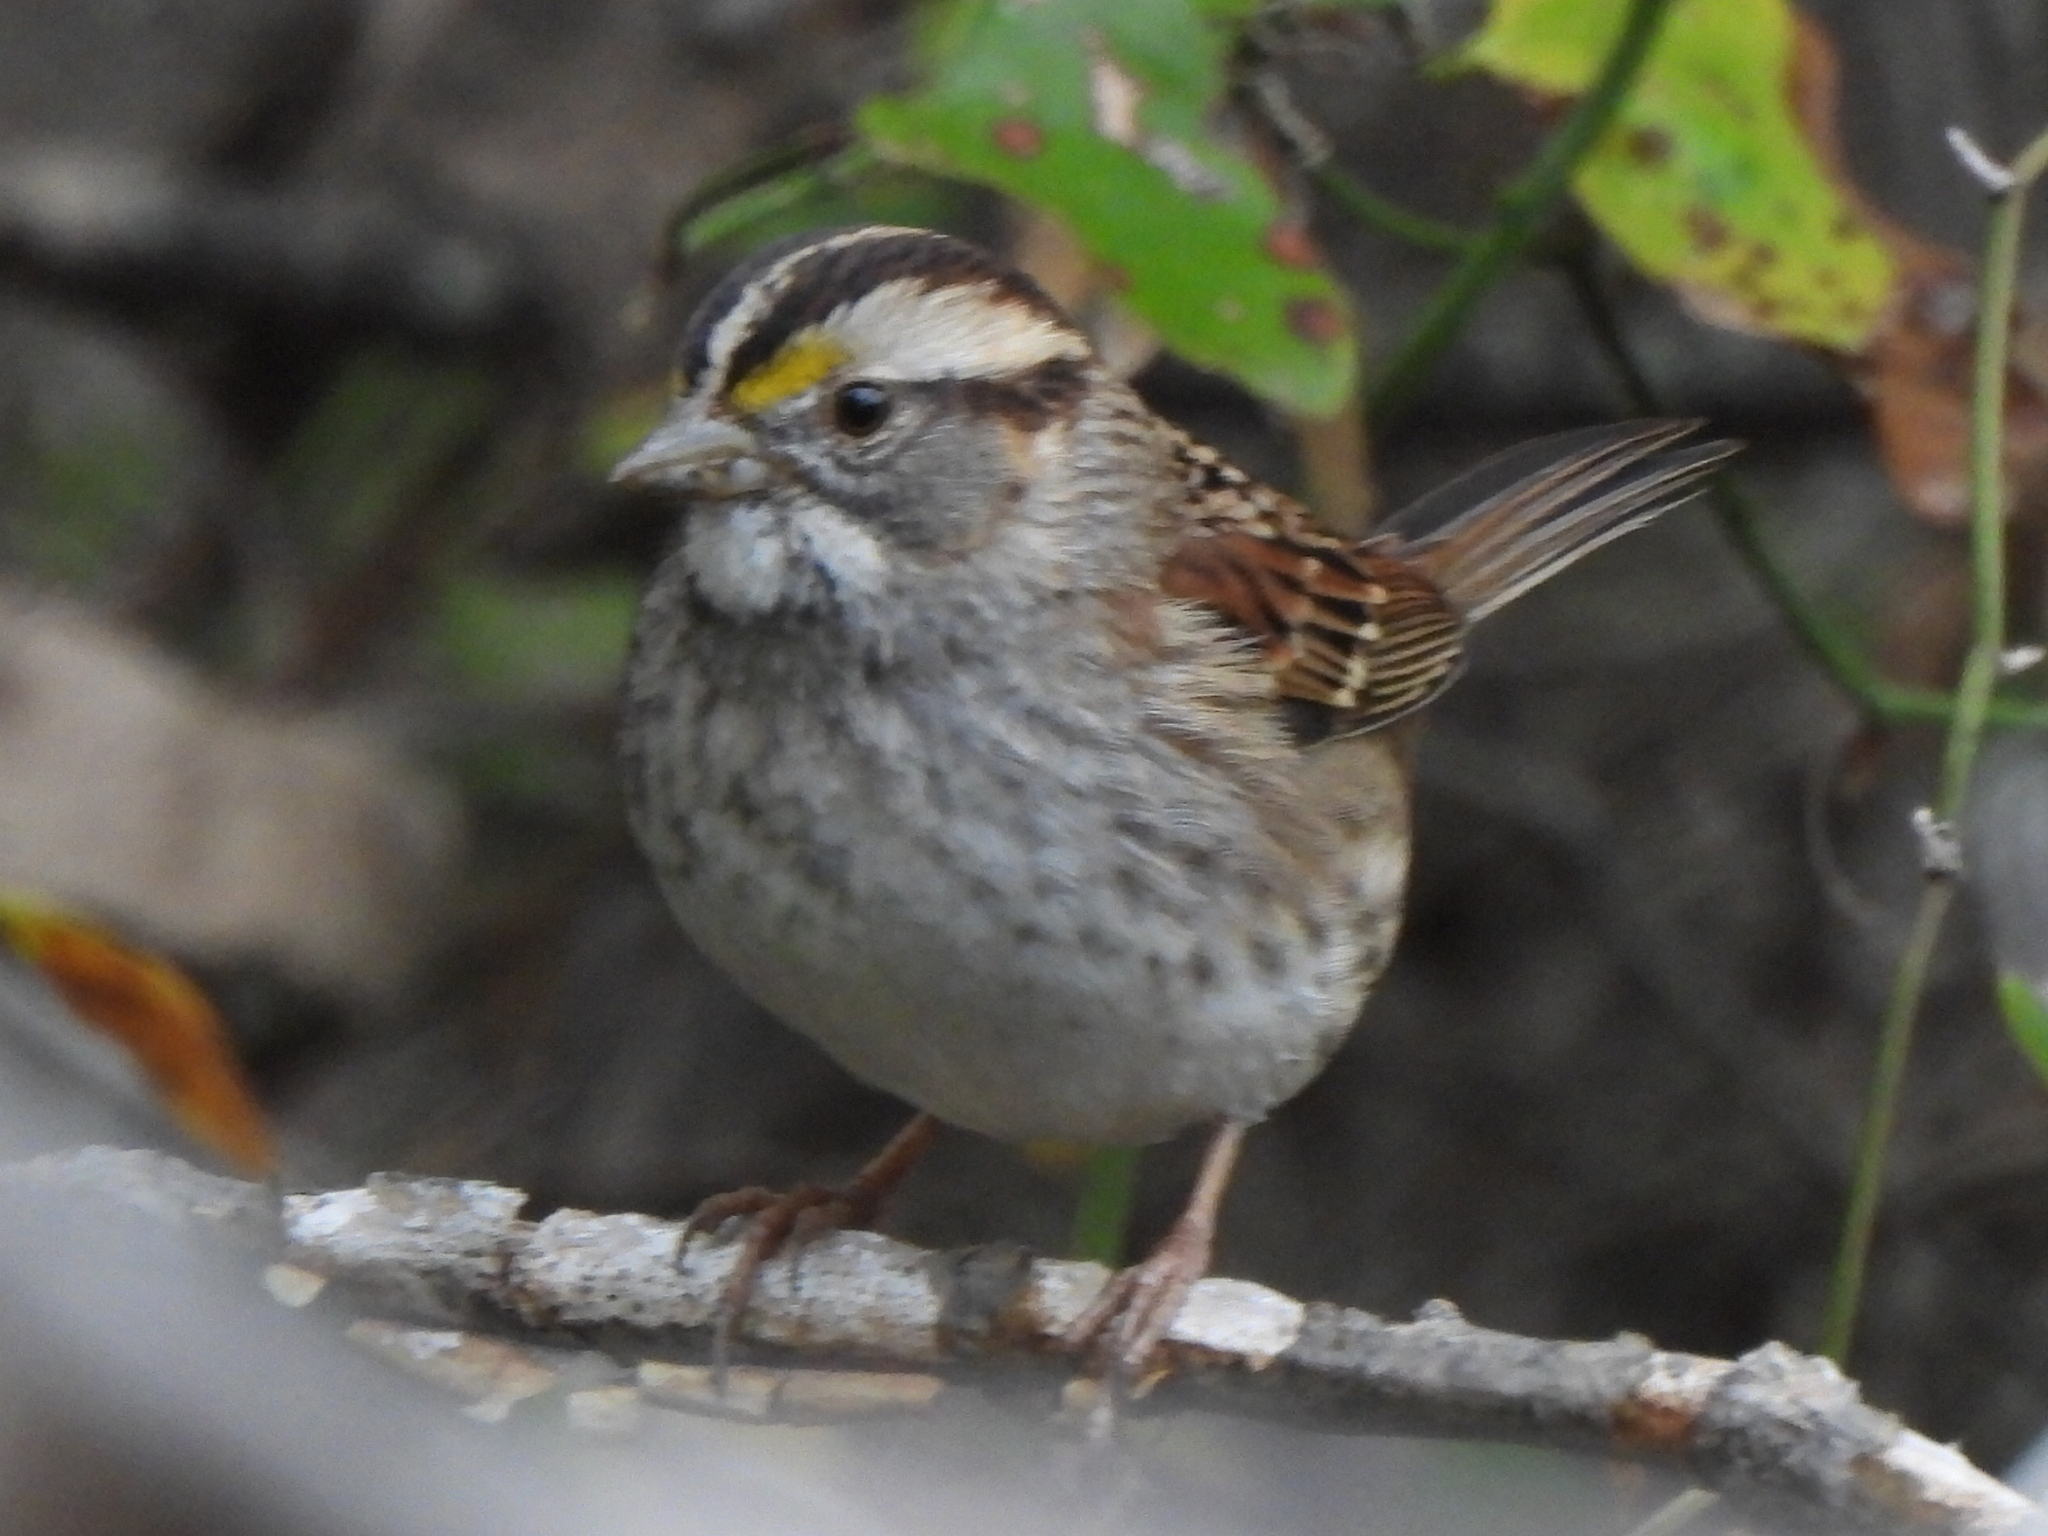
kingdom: Animalia
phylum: Chordata
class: Aves
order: Passeriformes
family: Passerellidae
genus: Zonotrichia
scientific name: Zonotrichia albicollis
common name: White-throated sparrow
